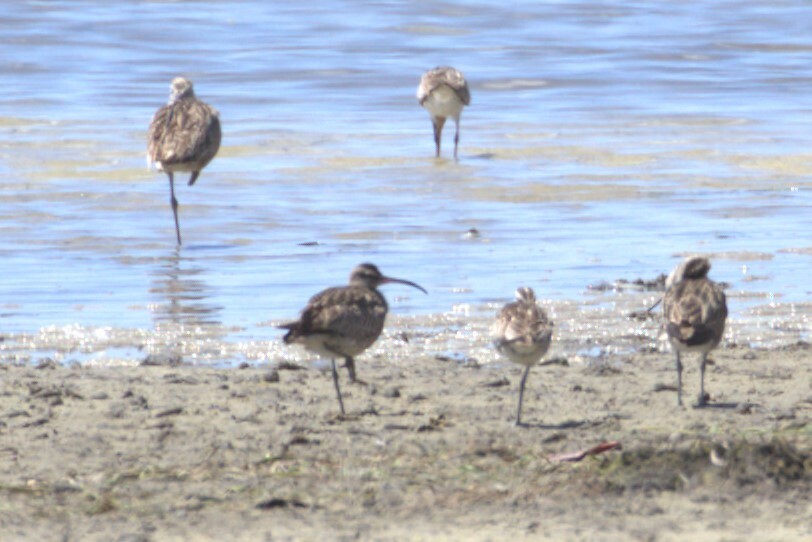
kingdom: Animalia
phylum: Chordata
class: Aves
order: Charadriiformes
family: Scolopacidae
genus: Numenius
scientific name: Numenius phaeopus
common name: Whimbrel
